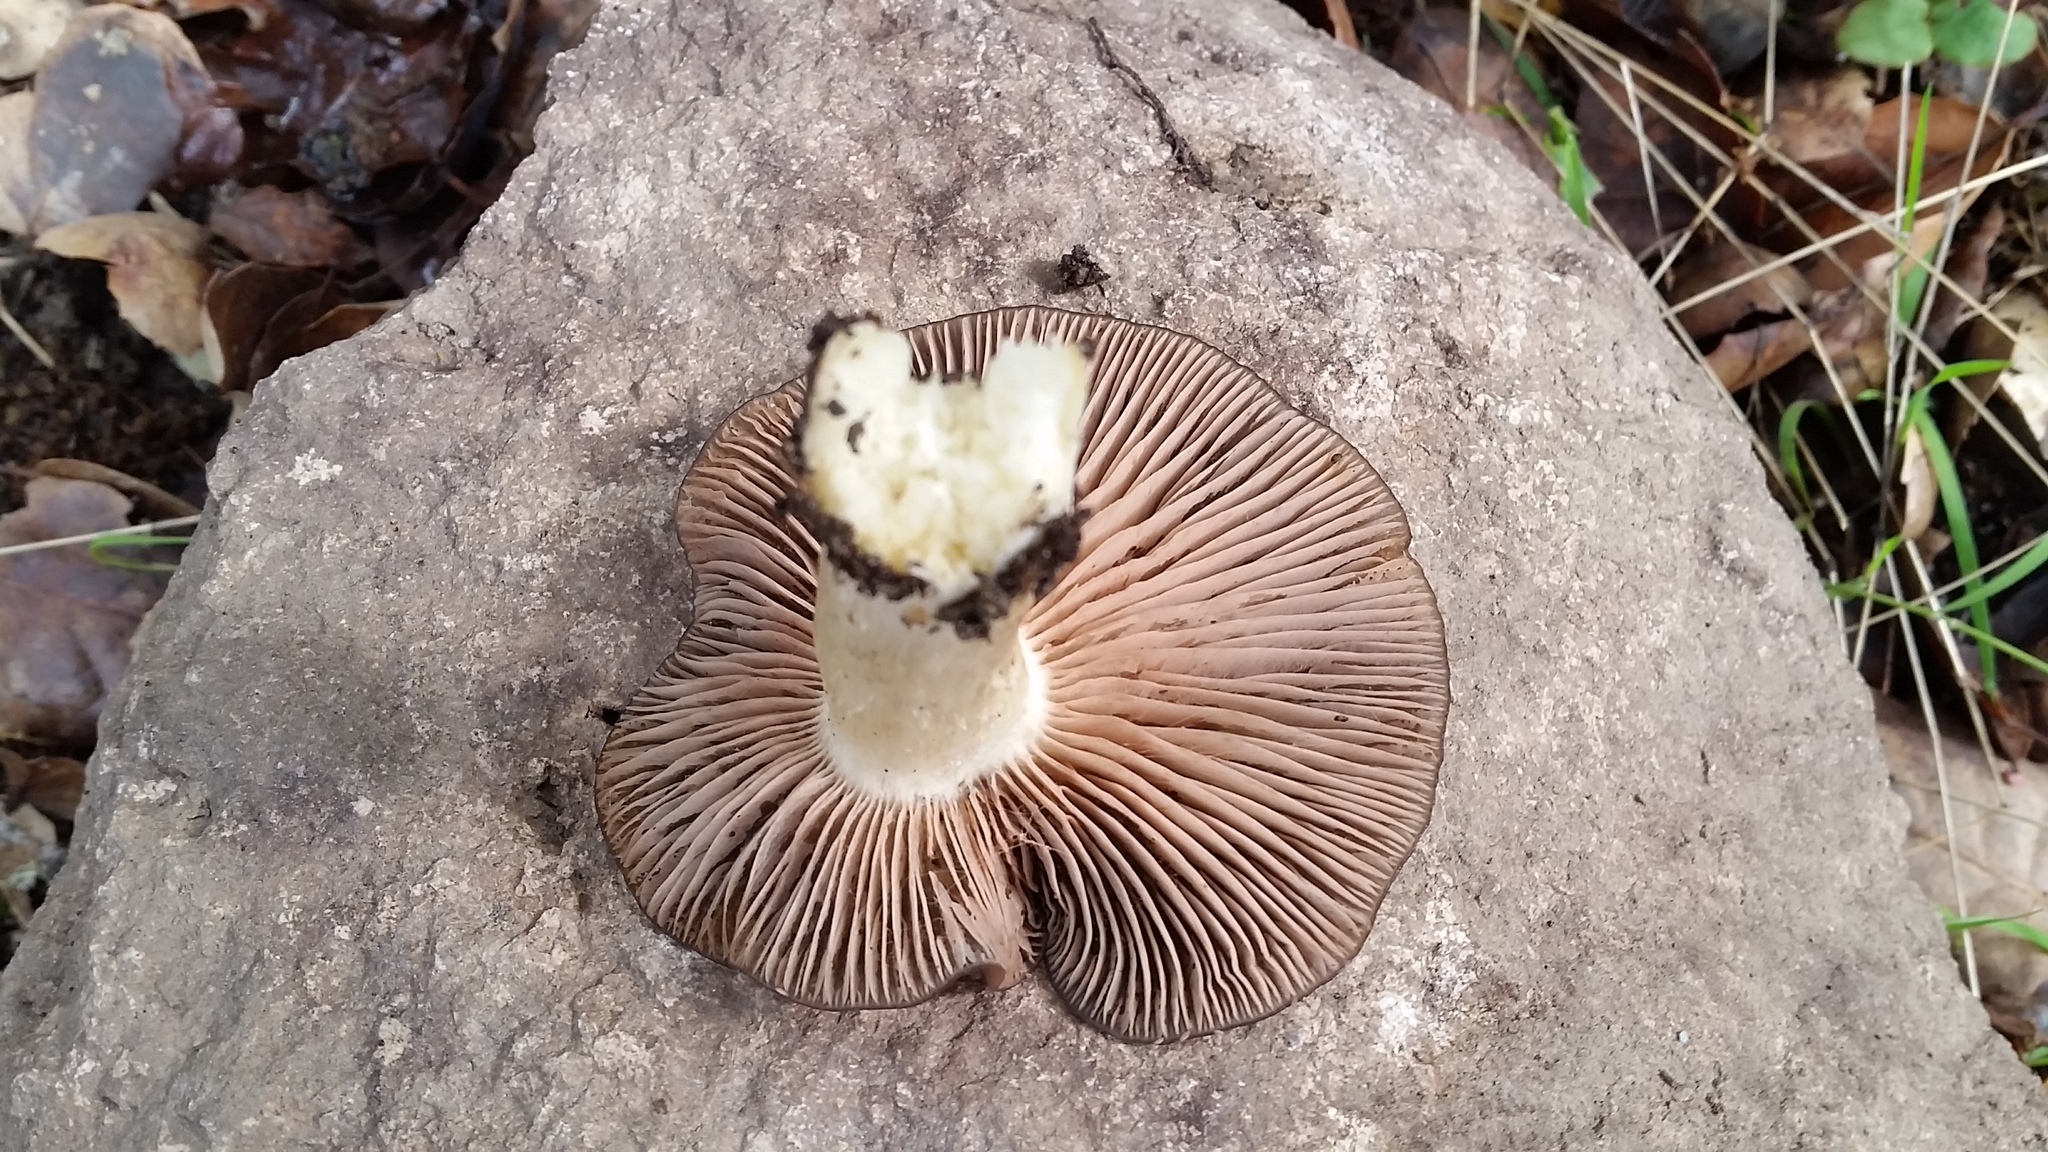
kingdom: Fungi
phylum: Basidiomycota
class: Agaricomycetes
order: Agaricales
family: Entolomataceae
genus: Entoloma
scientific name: Entoloma ferruginans
